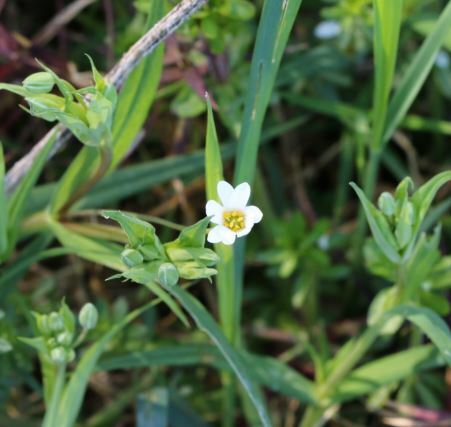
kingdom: Plantae
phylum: Tracheophyta
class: Magnoliopsida
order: Caryophyllales
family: Caryophyllaceae
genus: Rabelera
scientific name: Rabelera holostea
